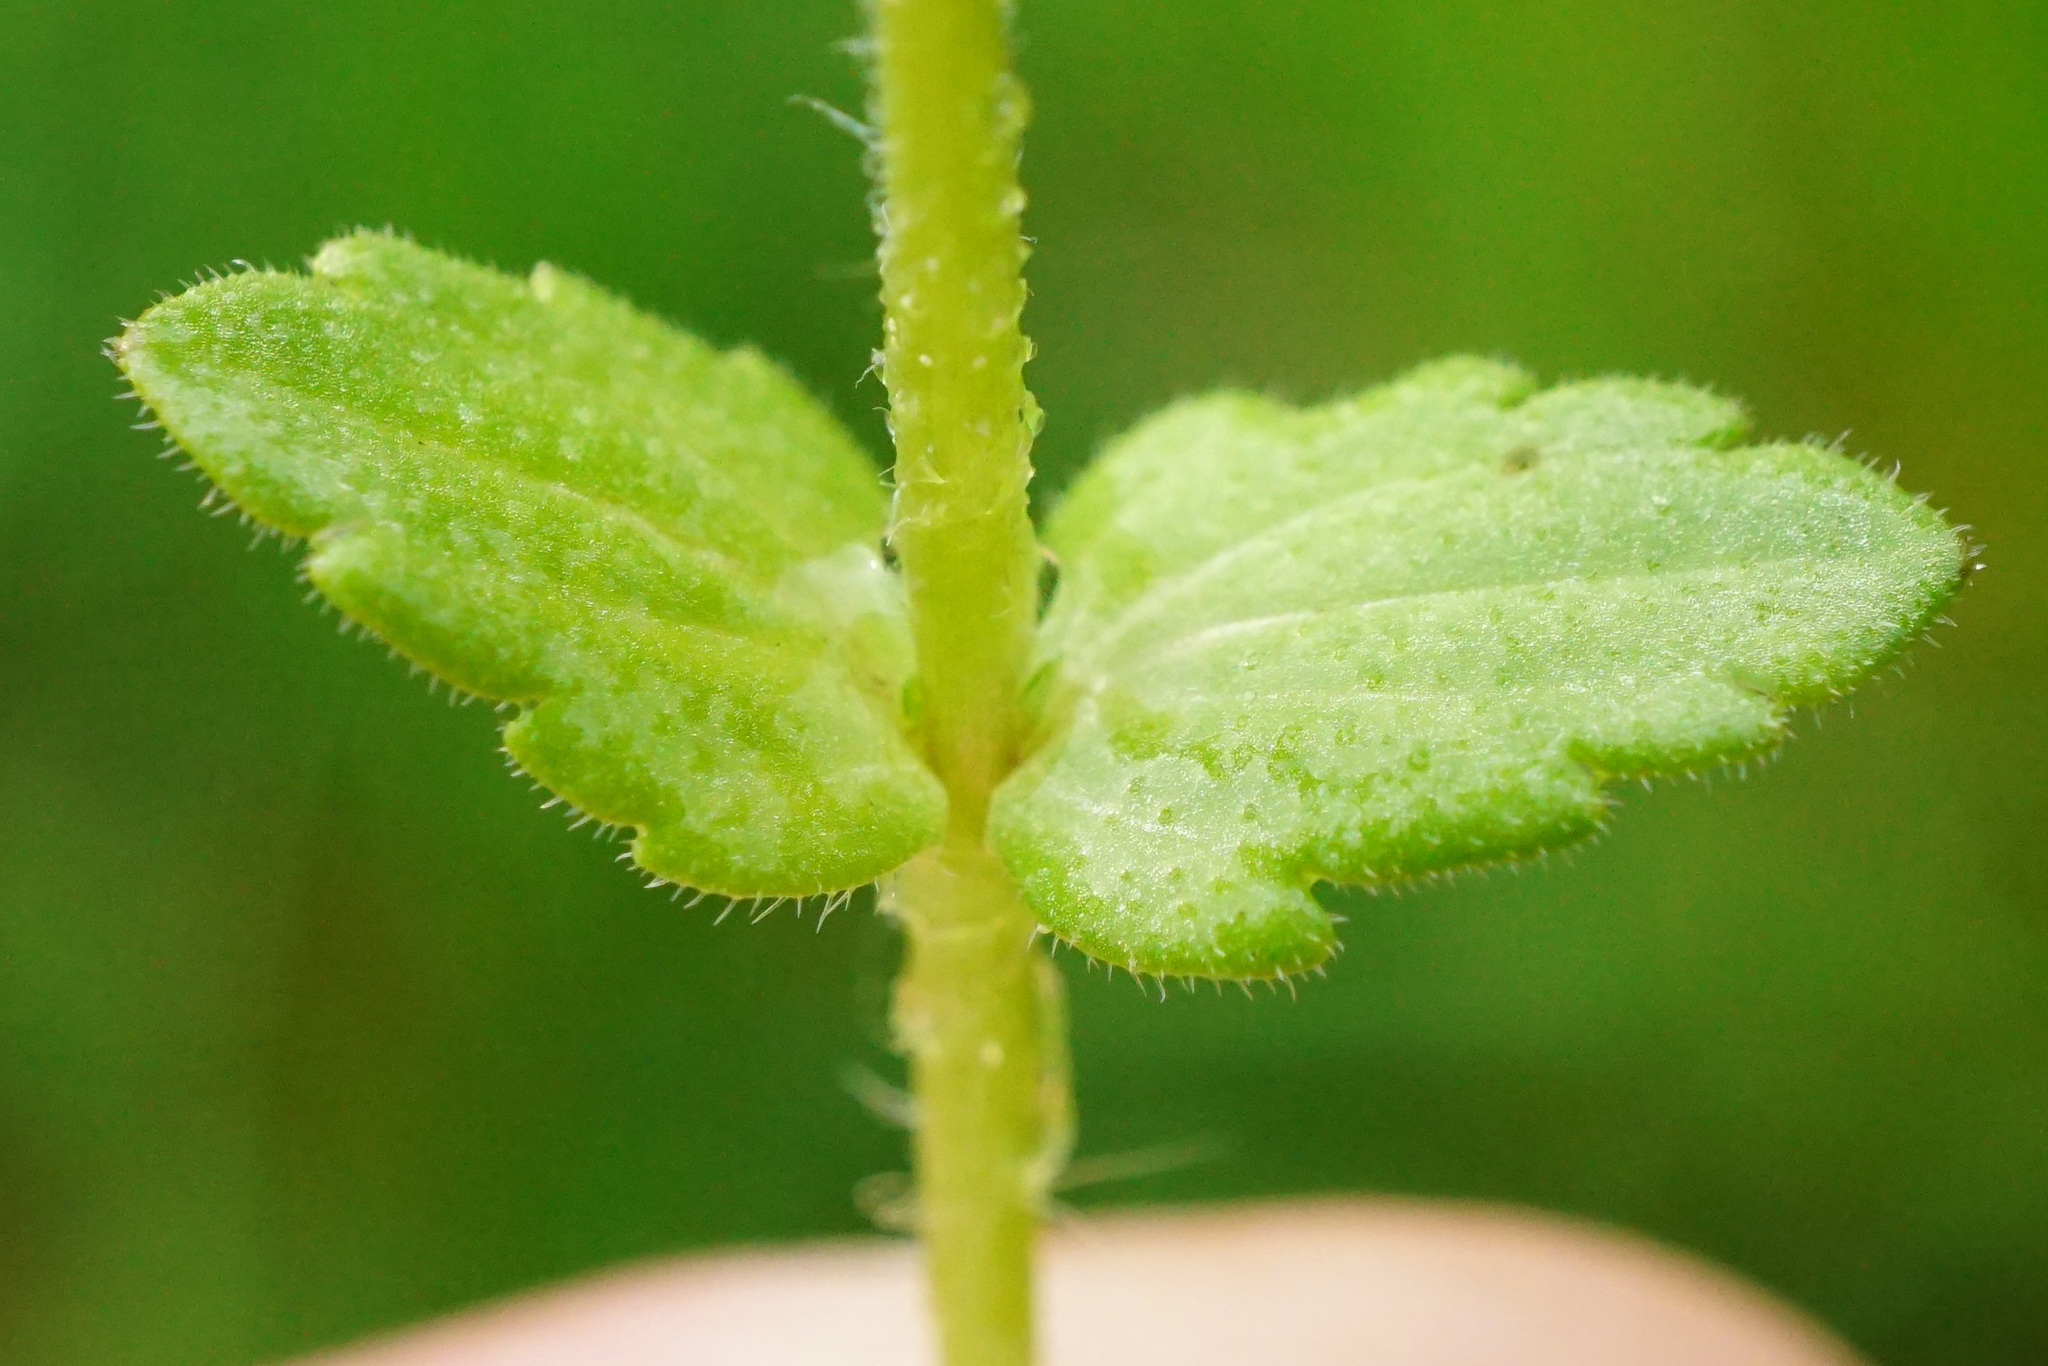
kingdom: Plantae
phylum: Tracheophyta
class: Magnoliopsida
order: Lamiales
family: Plantaginaceae
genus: Veronica
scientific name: Veronica arvensis
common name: Corn speedwell
